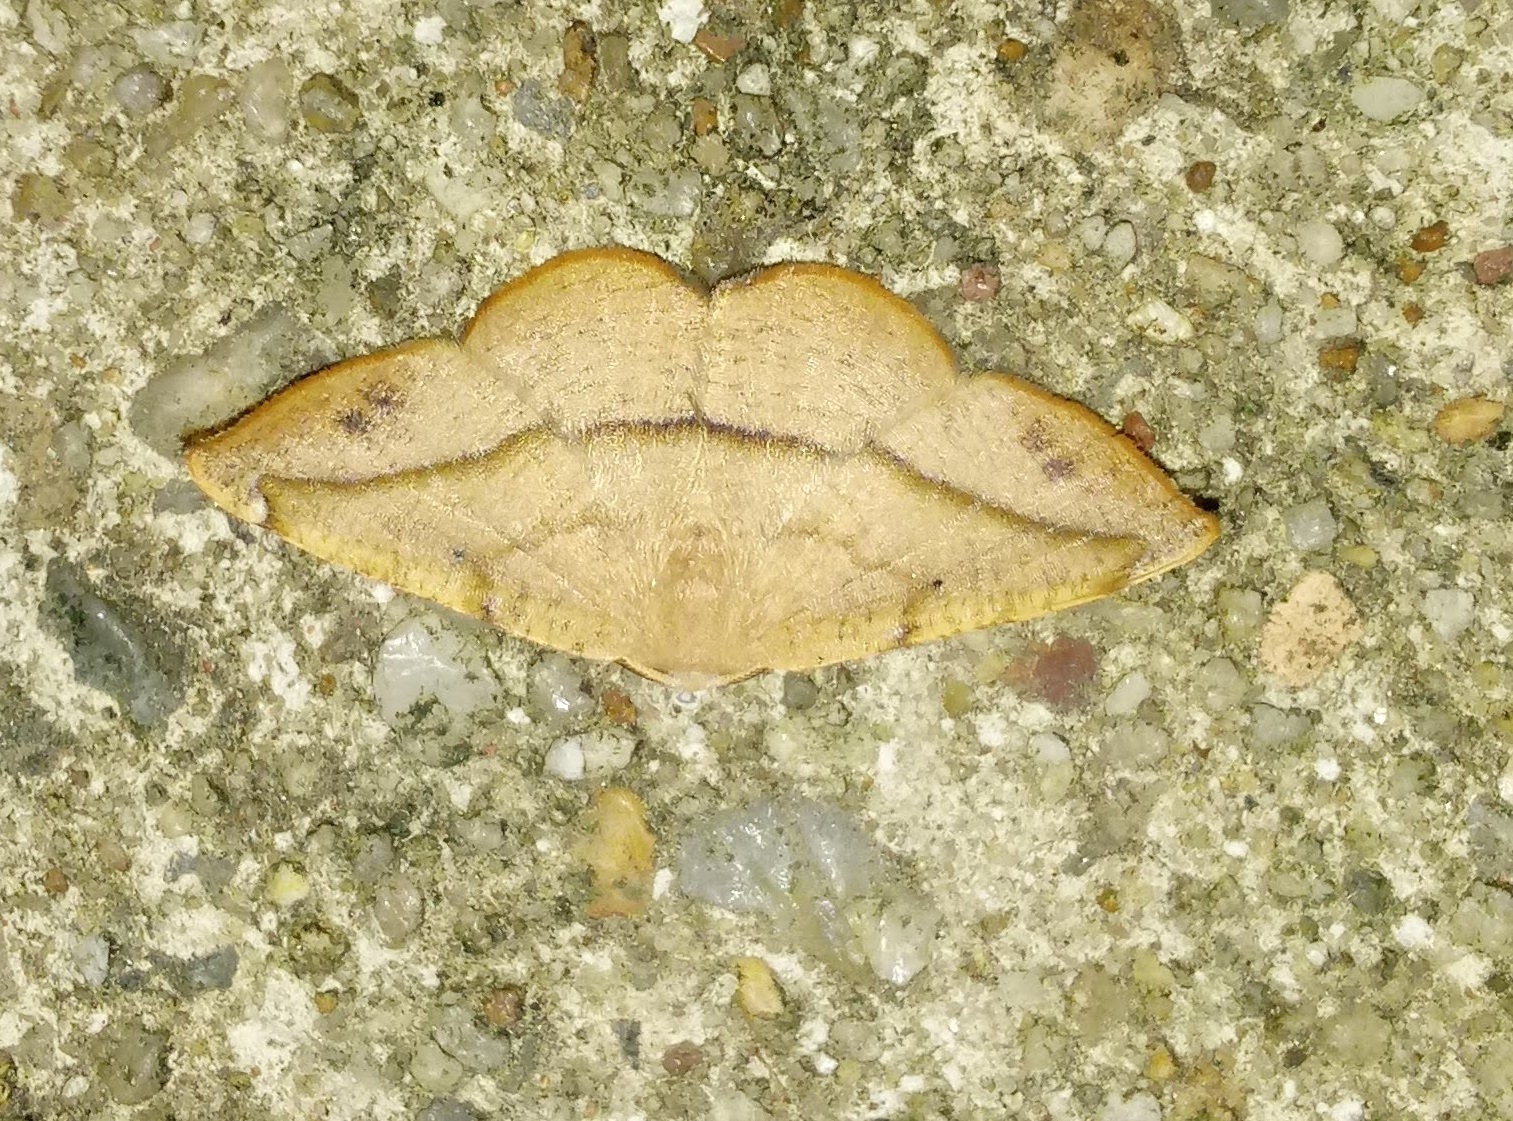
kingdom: Animalia
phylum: Arthropoda
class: Insecta
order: Lepidoptera
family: Geometridae
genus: Patalene
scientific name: Patalene olyzonaria
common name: Juniper geometer moth
